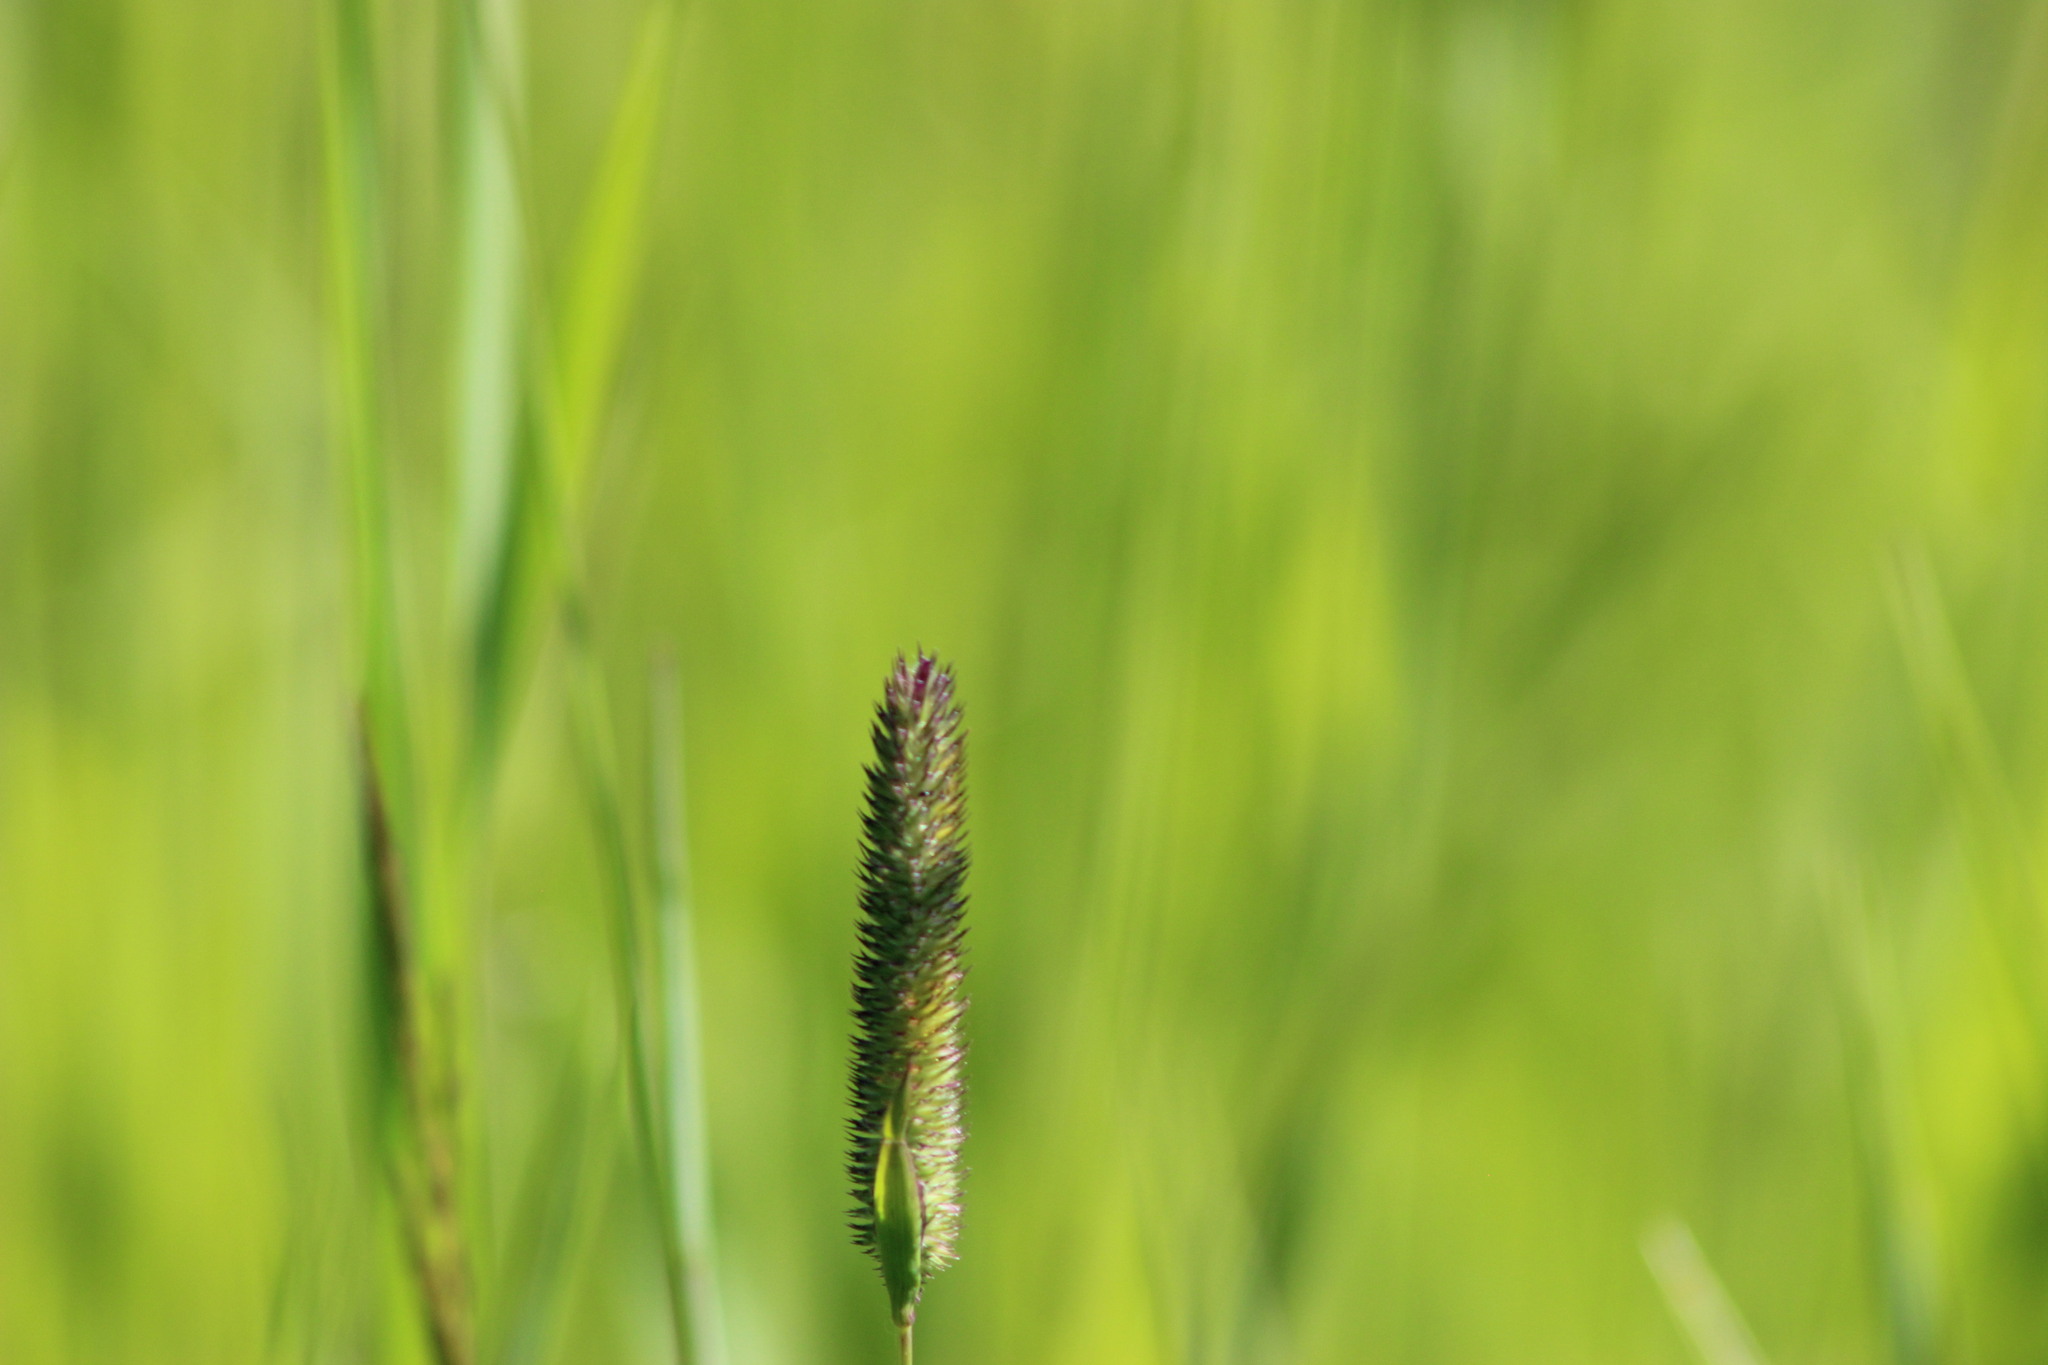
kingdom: Plantae
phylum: Tracheophyta
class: Liliopsida
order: Poales
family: Poaceae
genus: Phleum
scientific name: Phleum pratense
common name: Timothy grass
